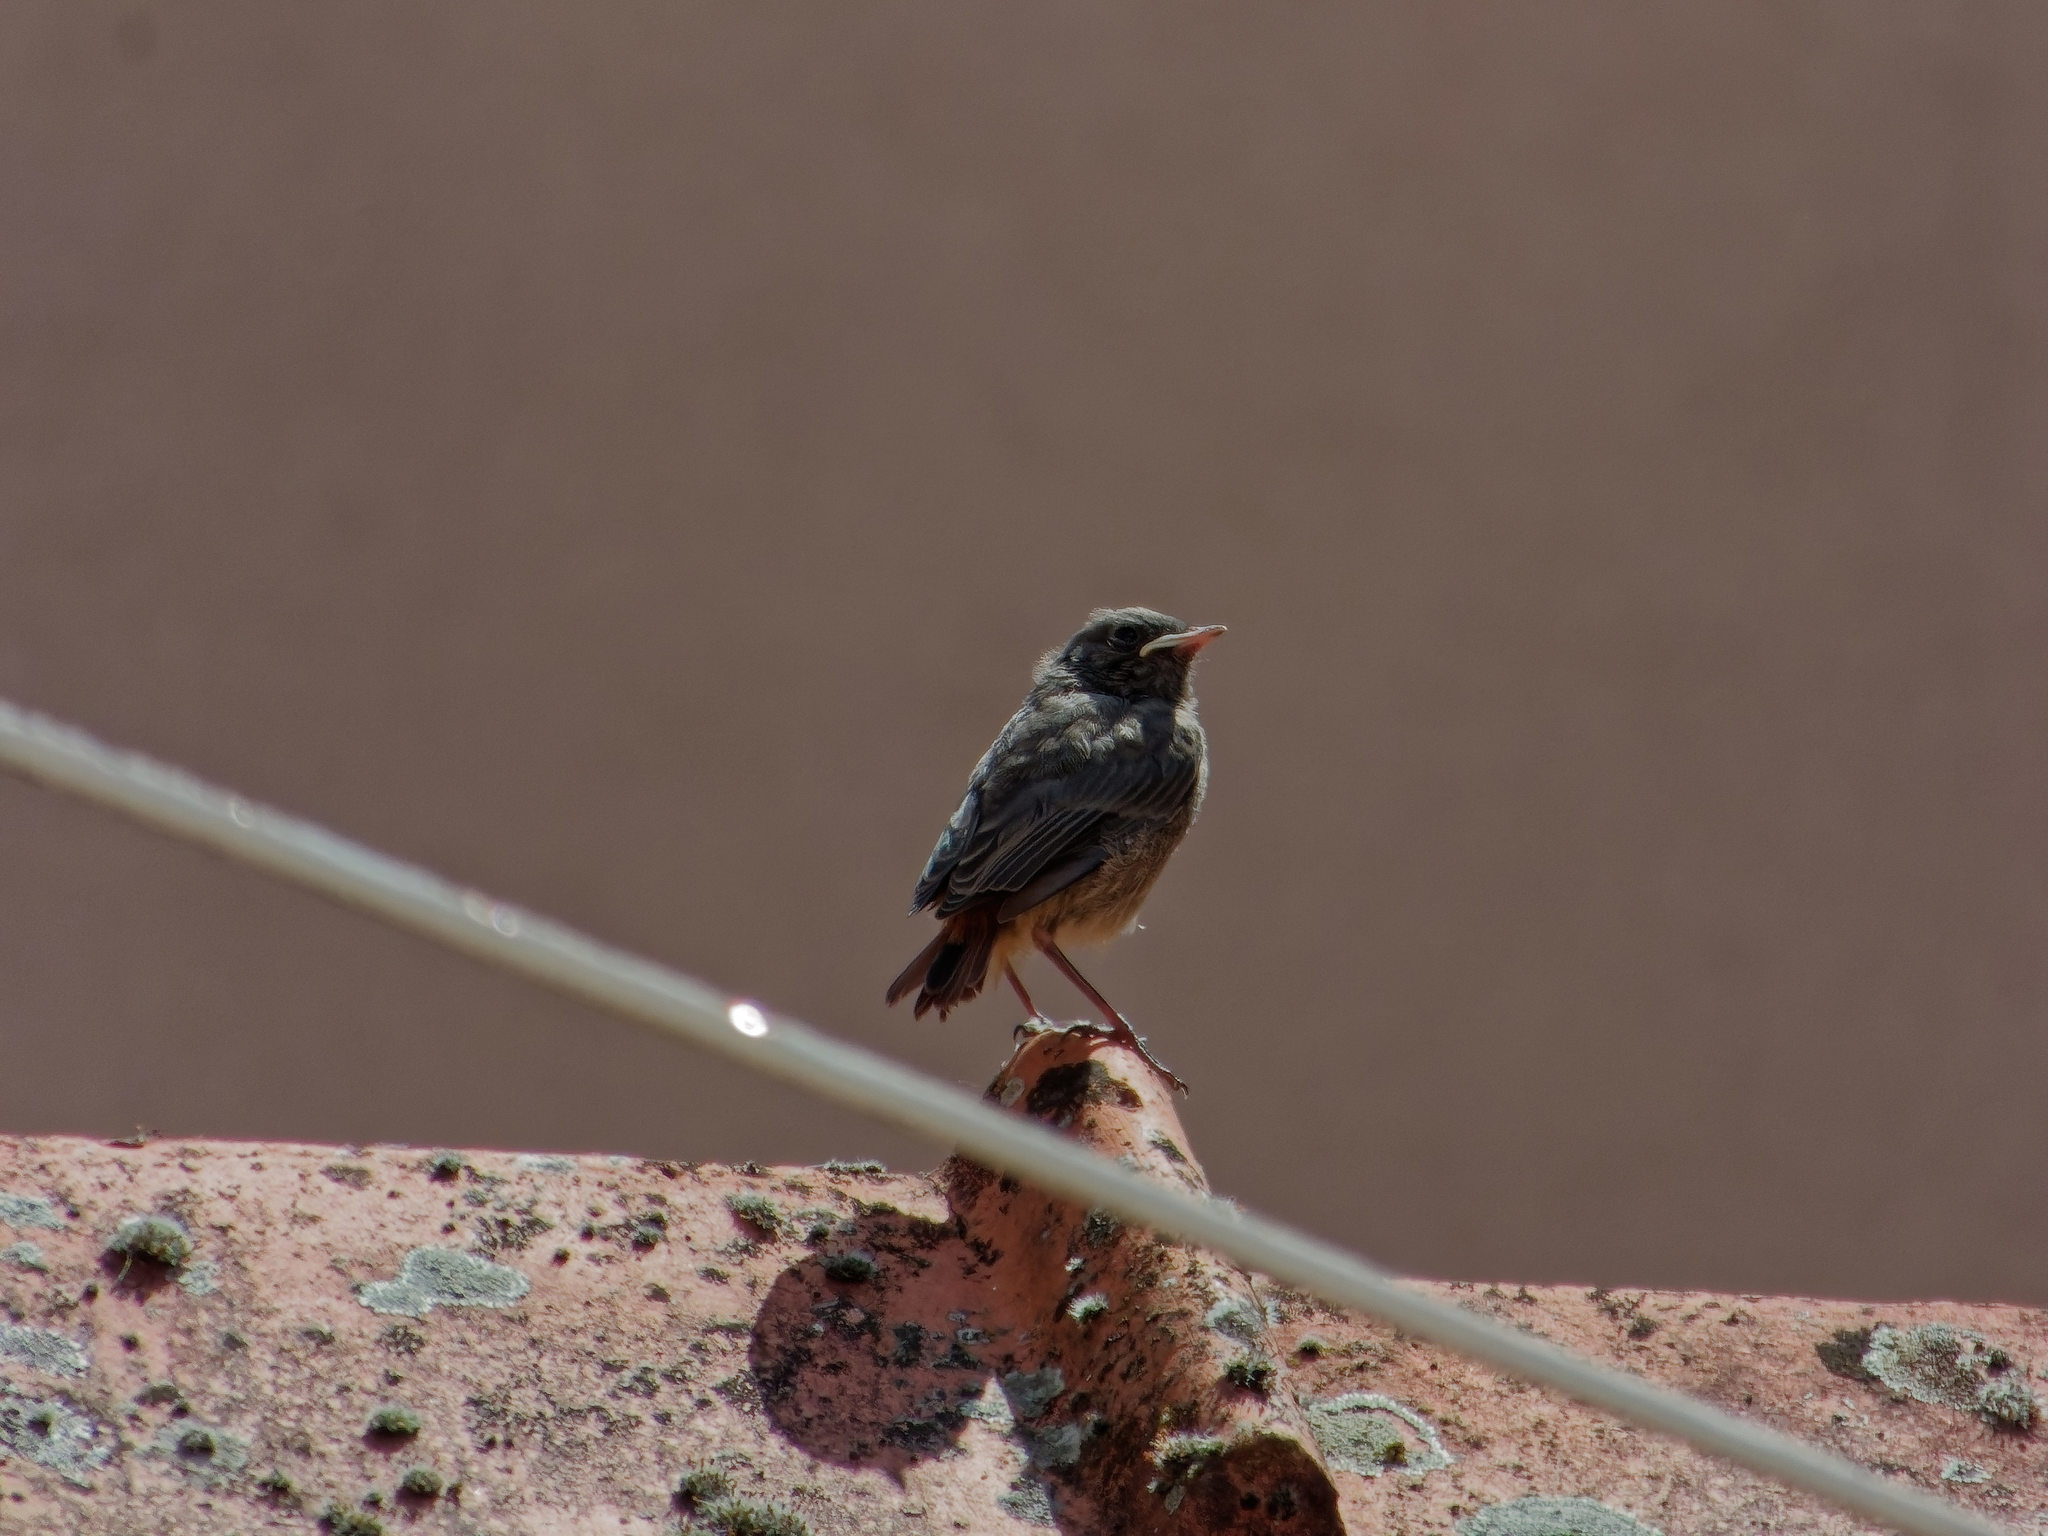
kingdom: Animalia
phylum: Chordata
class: Aves
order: Passeriformes
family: Muscicapidae
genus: Phoenicurus
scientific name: Phoenicurus ochruros
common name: Black redstart
